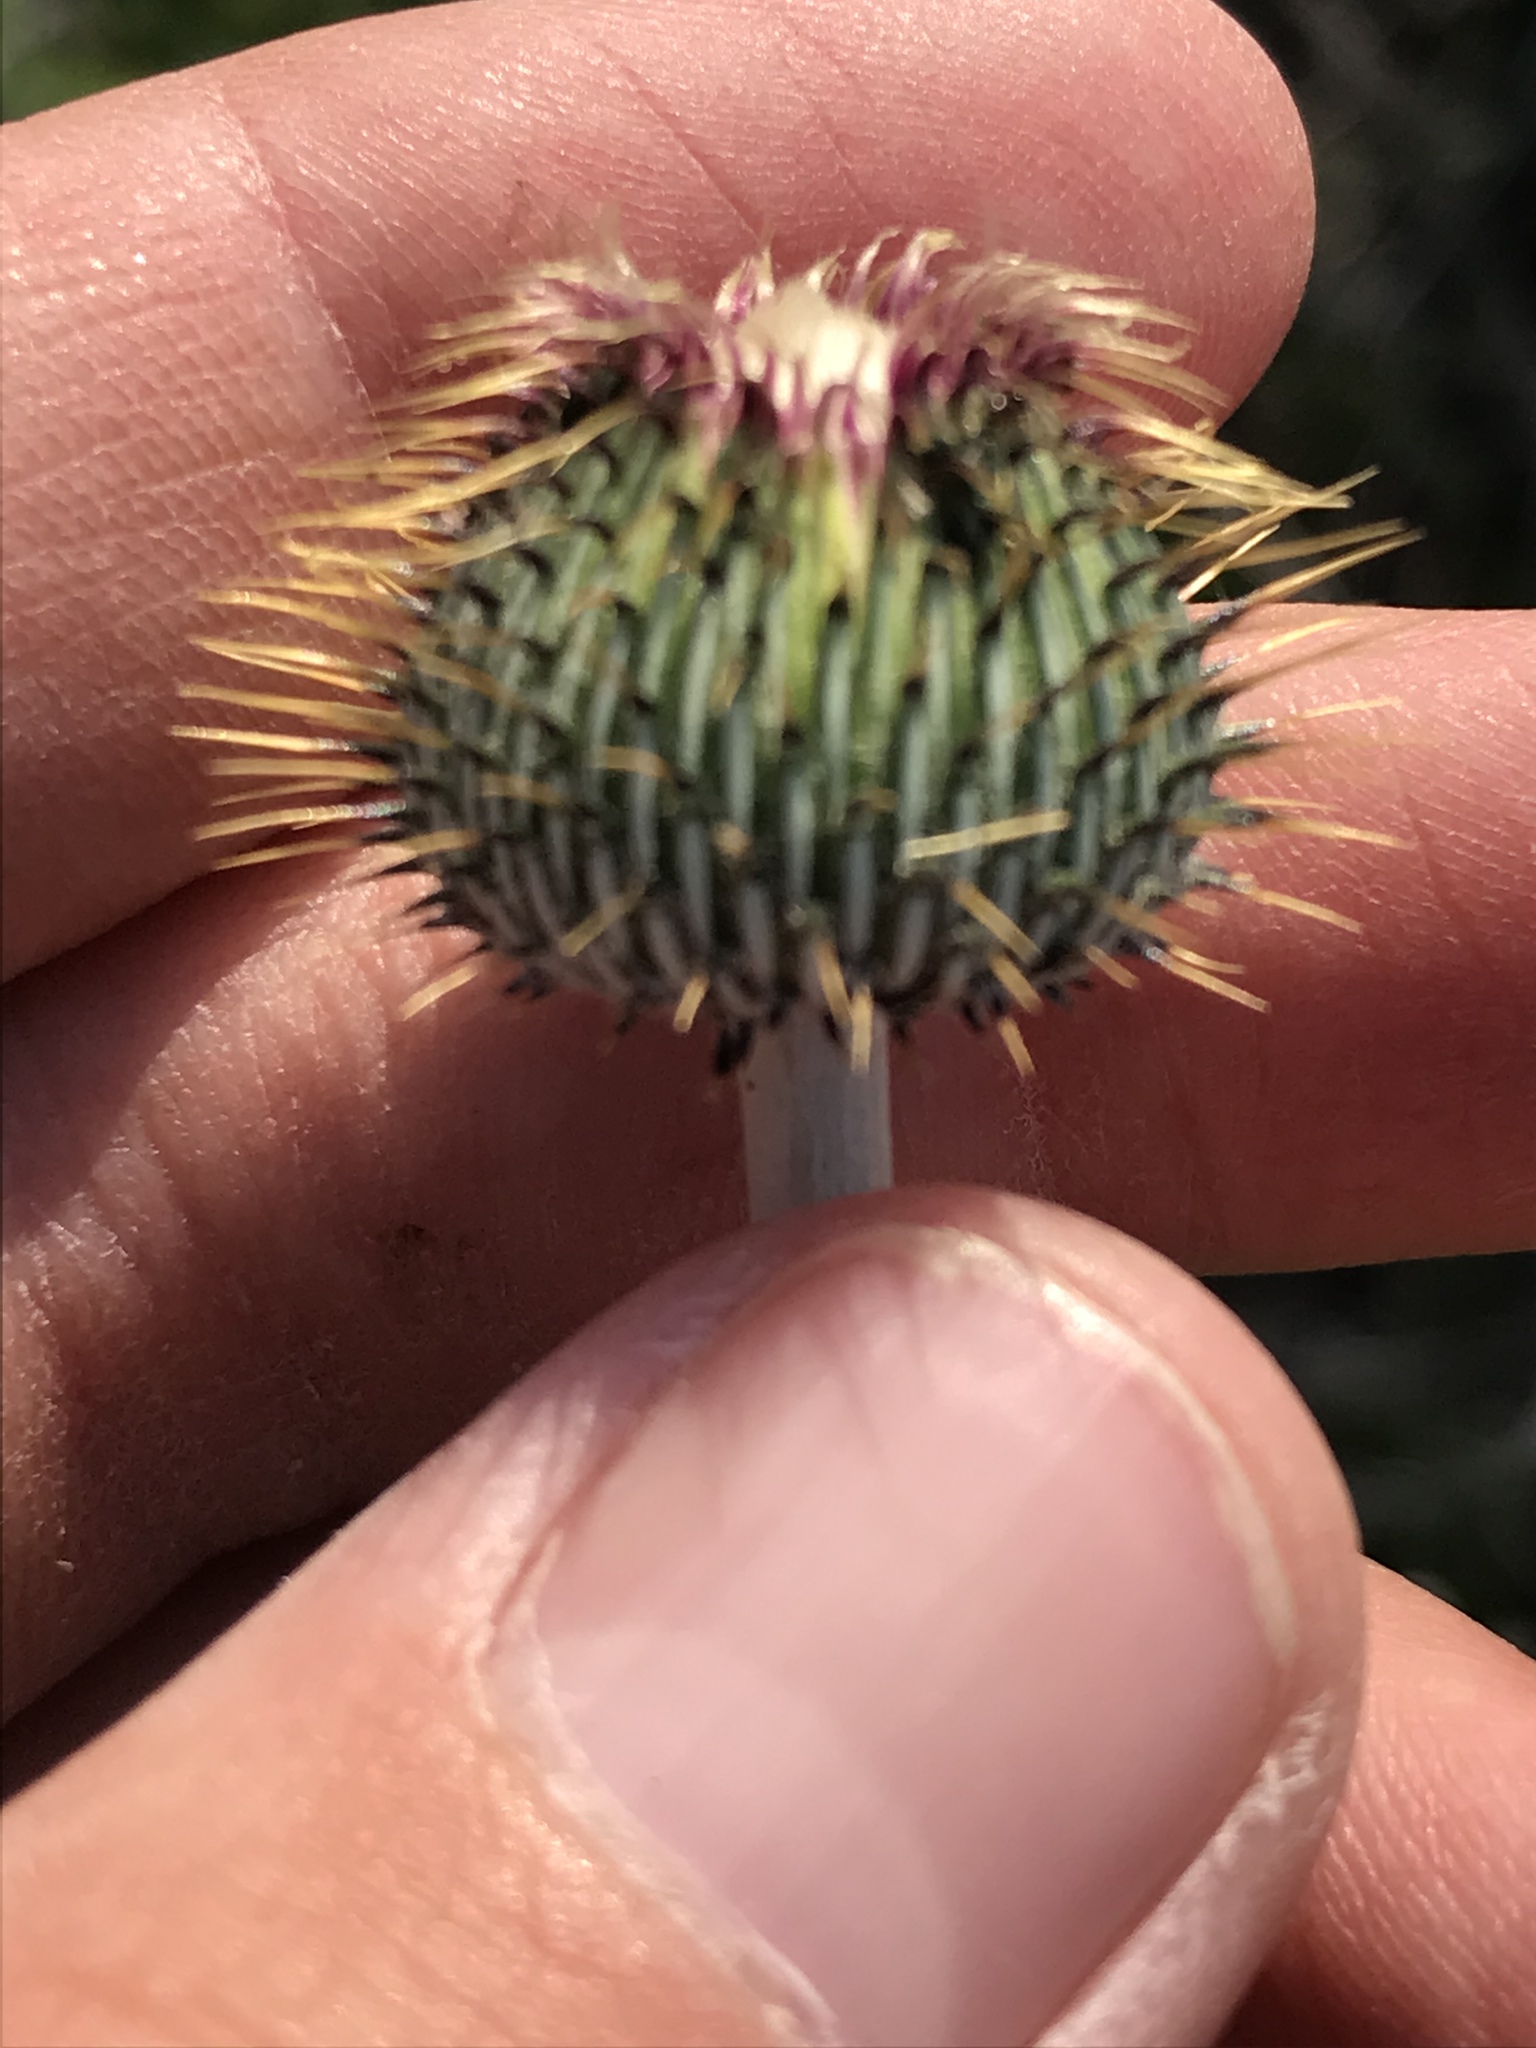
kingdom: Plantae
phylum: Tracheophyta
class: Magnoliopsida
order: Asterales
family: Asteraceae
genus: Cirsium
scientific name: Cirsium texanum
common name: Texas purple thistle
